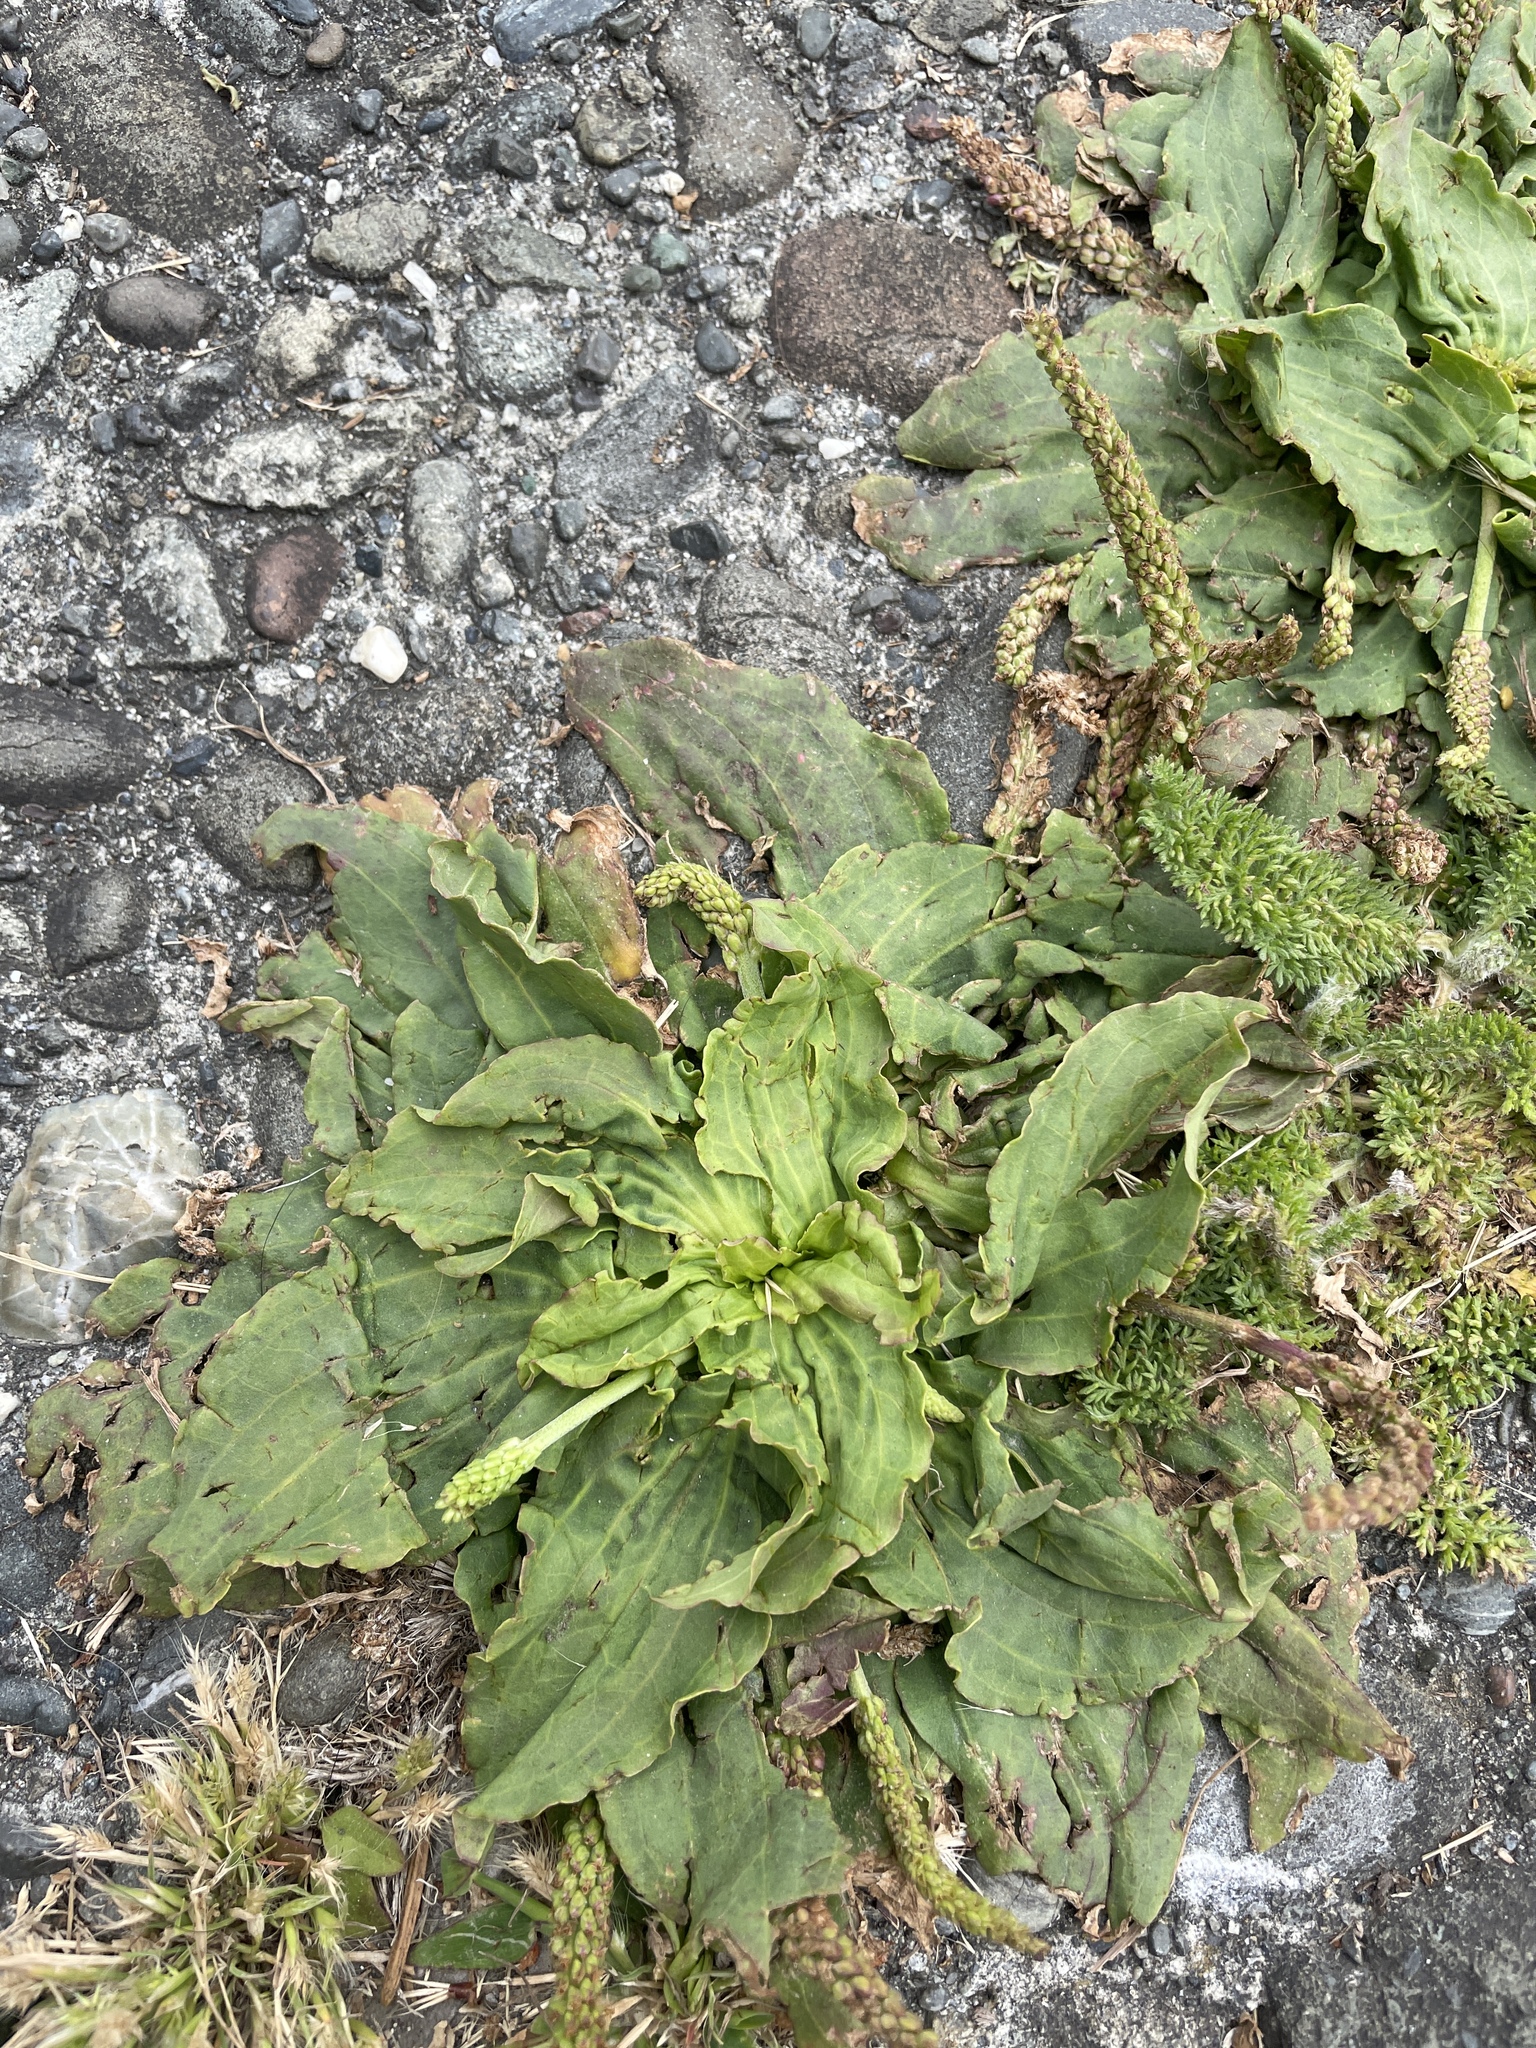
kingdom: Plantae
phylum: Tracheophyta
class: Magnoliopsida
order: Lamiales
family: Plantaginaceae
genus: Plantago
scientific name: Plantago major
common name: Common plantain
